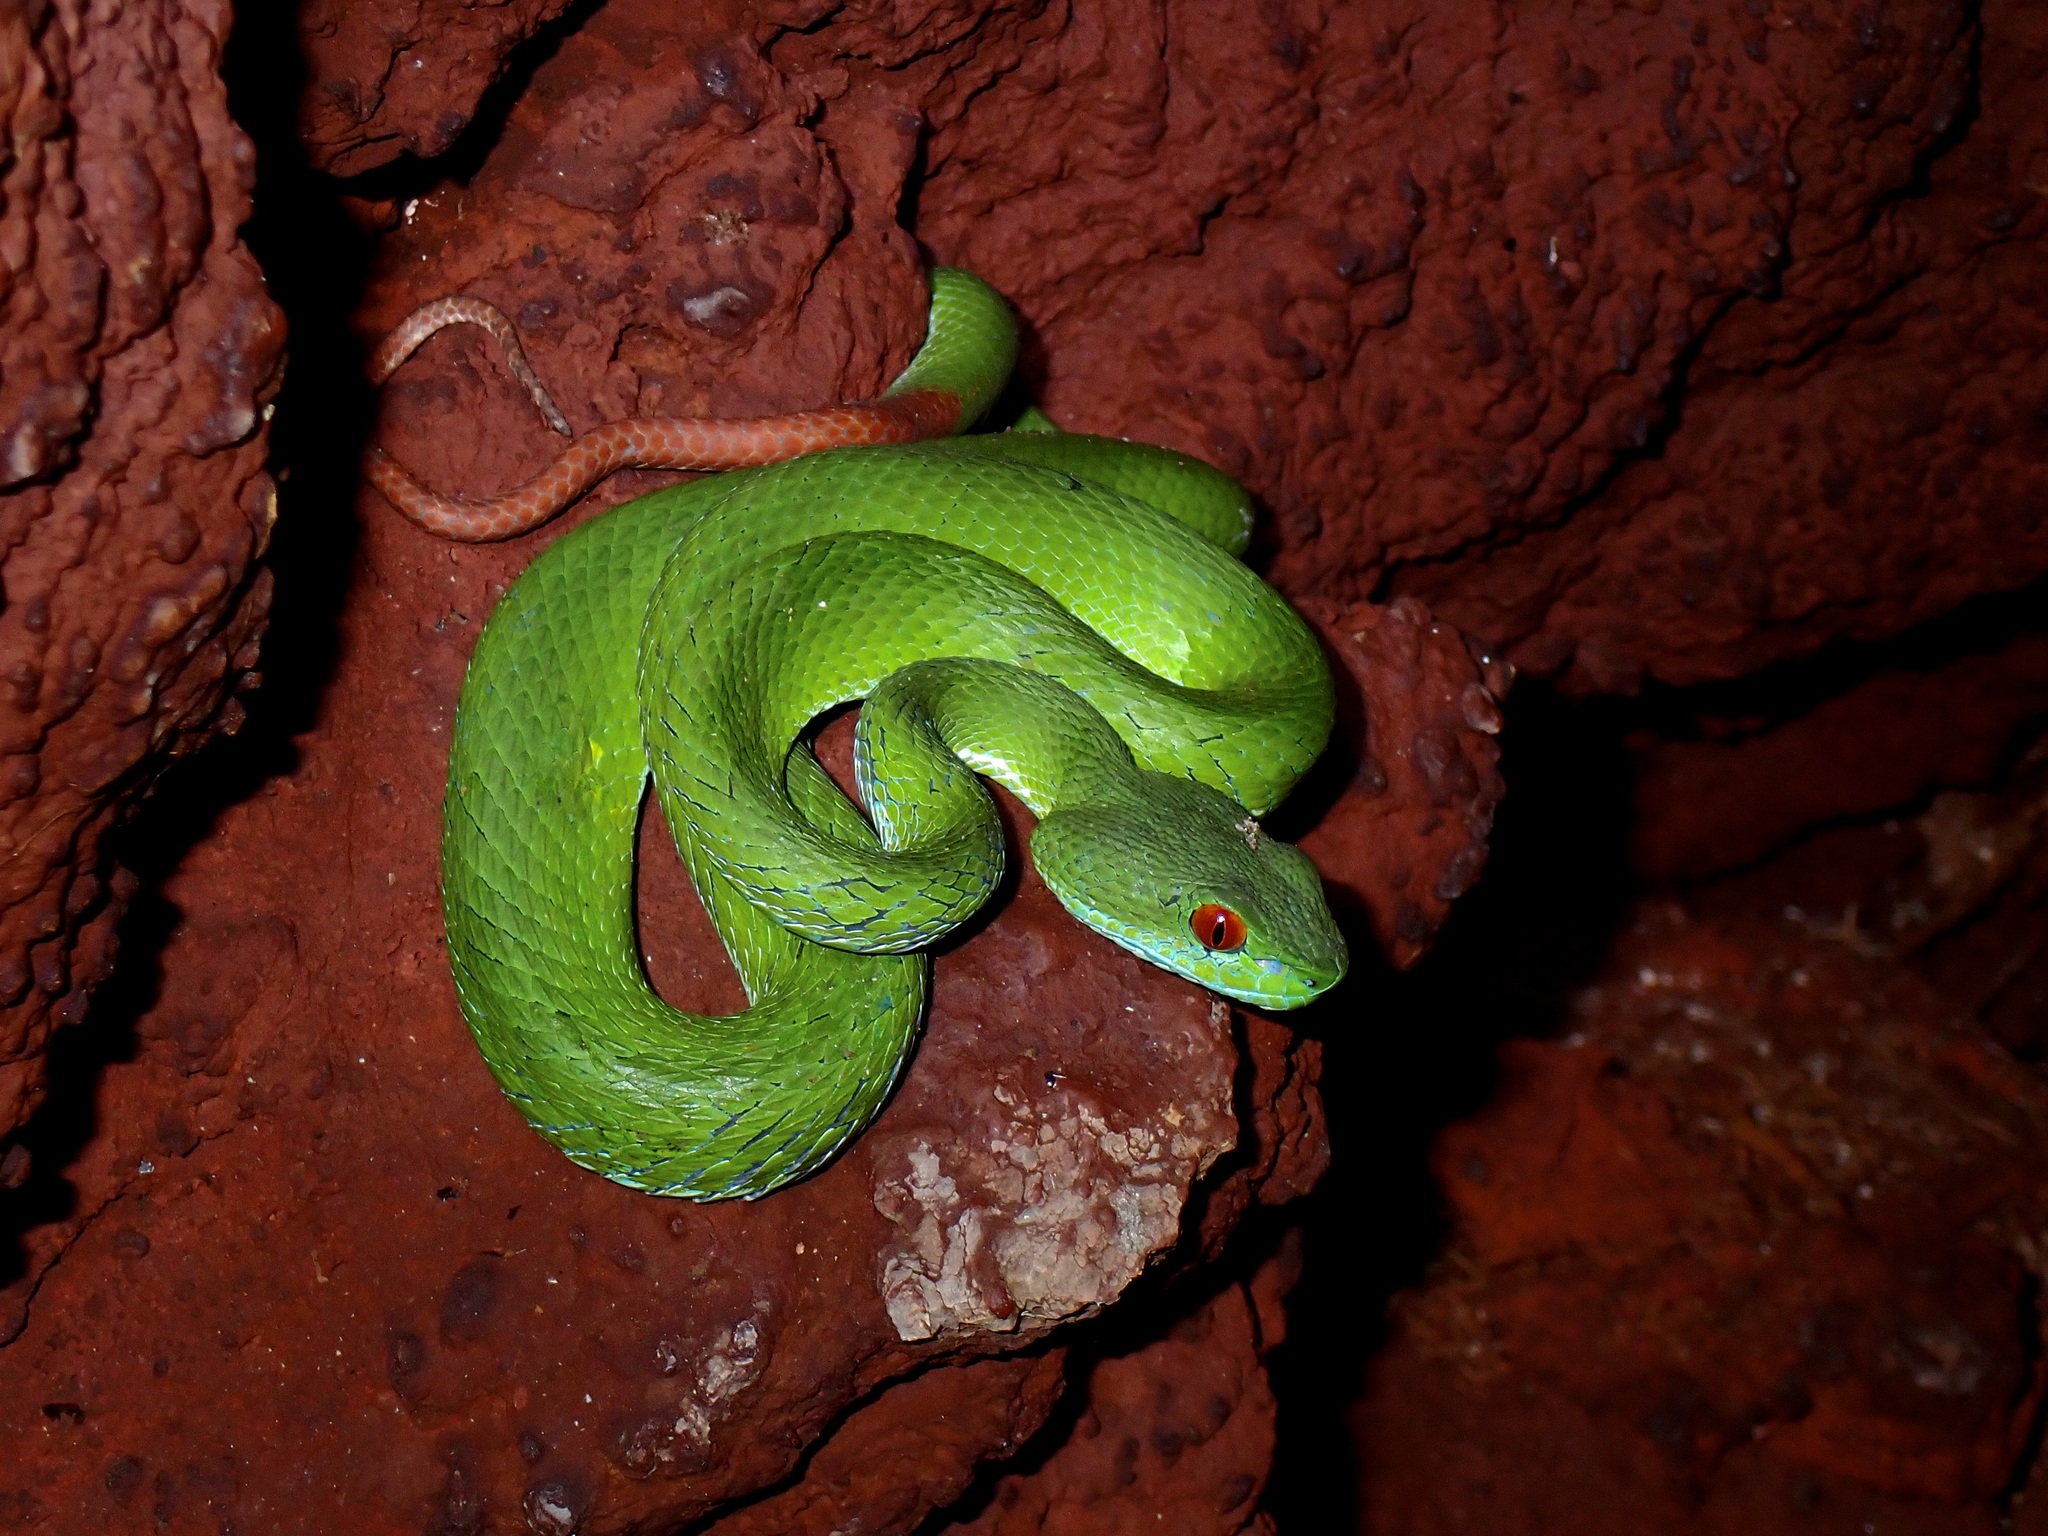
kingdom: Animalia
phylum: Chordata
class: Squamata
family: Viperidae
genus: Craspedocephalus
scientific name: Craspedocephalus rubeus
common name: Ruby-eyed green pitviper
